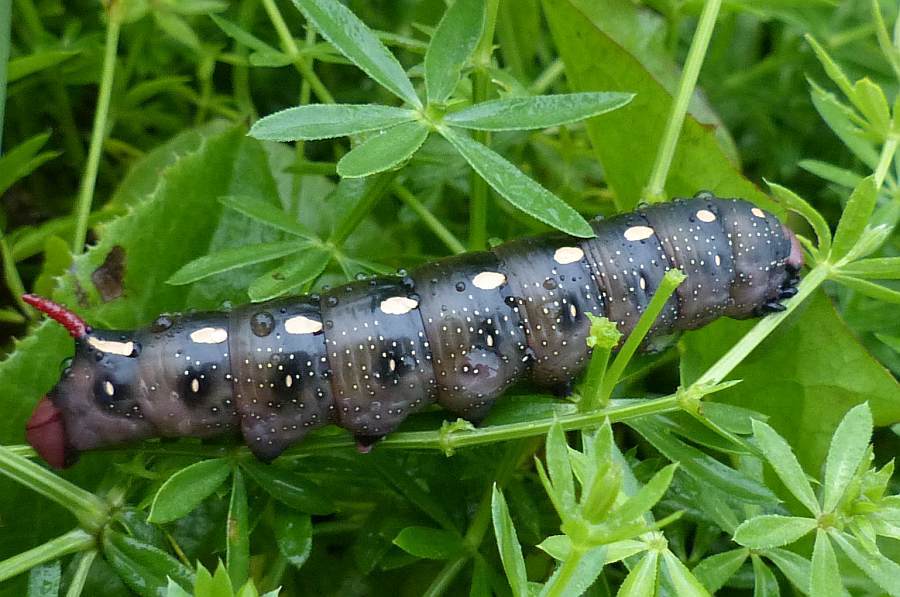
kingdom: Animalia
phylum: Arthropoda
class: Insecta
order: Lepidoptera
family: Sphingidae
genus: Hyles
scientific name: Hyles gallii
